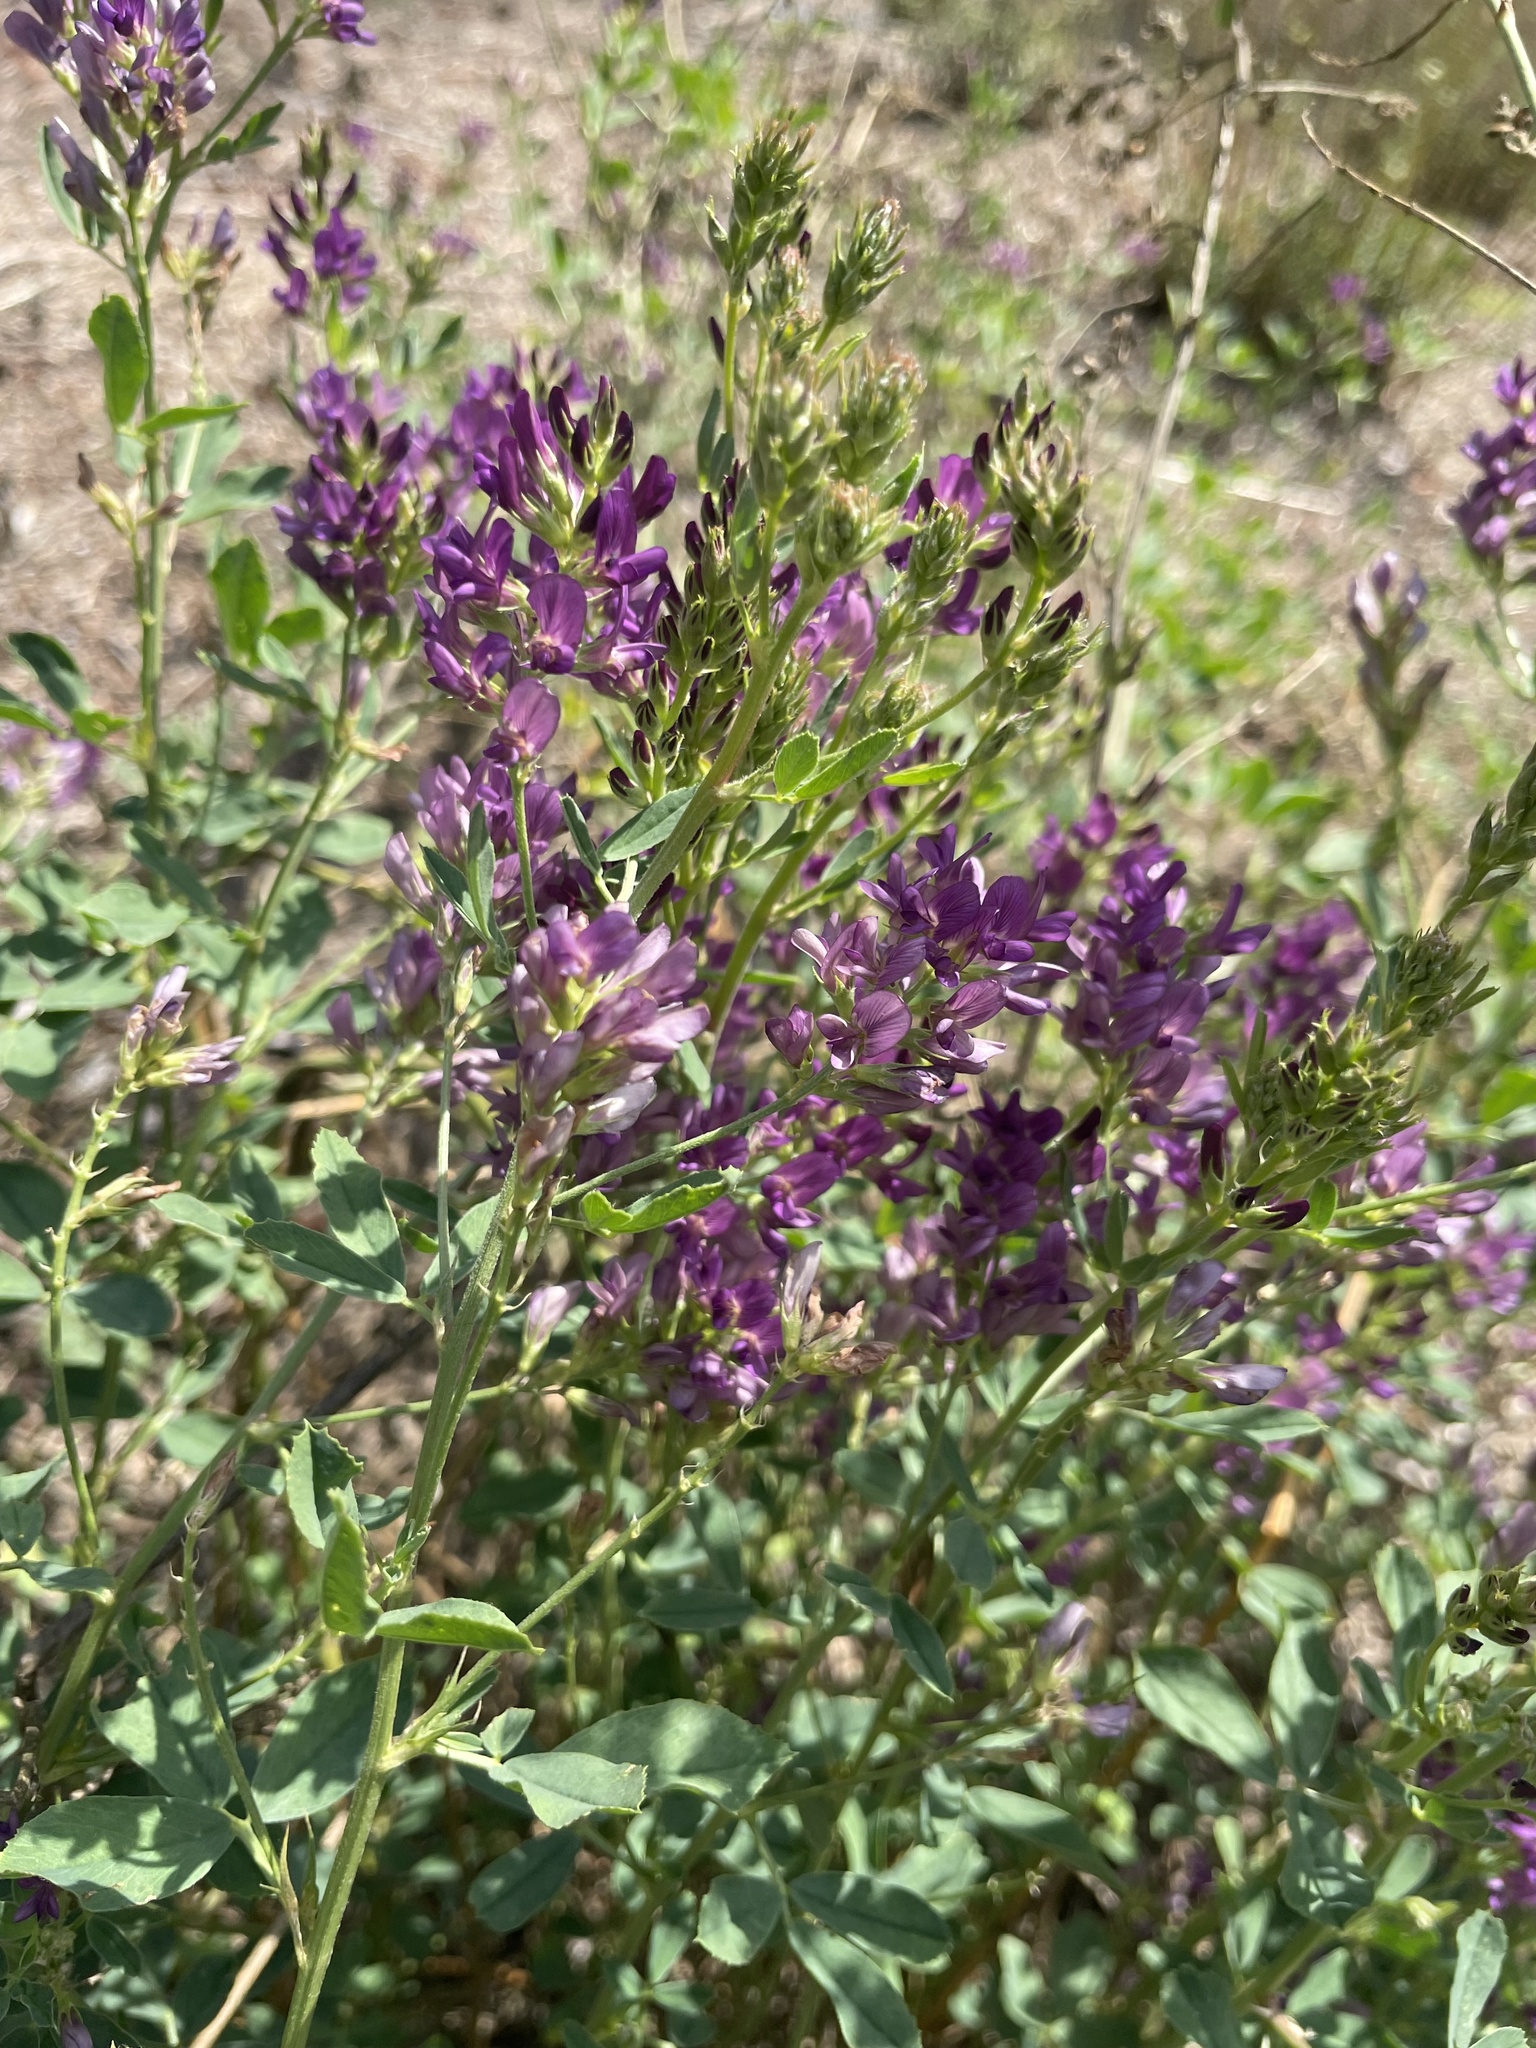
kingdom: Plantae
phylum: Tracheophyta
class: Magnoliopsida
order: Fabales
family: Fabaceae
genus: Medicago
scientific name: Medicago sativa
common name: Alfalfa
